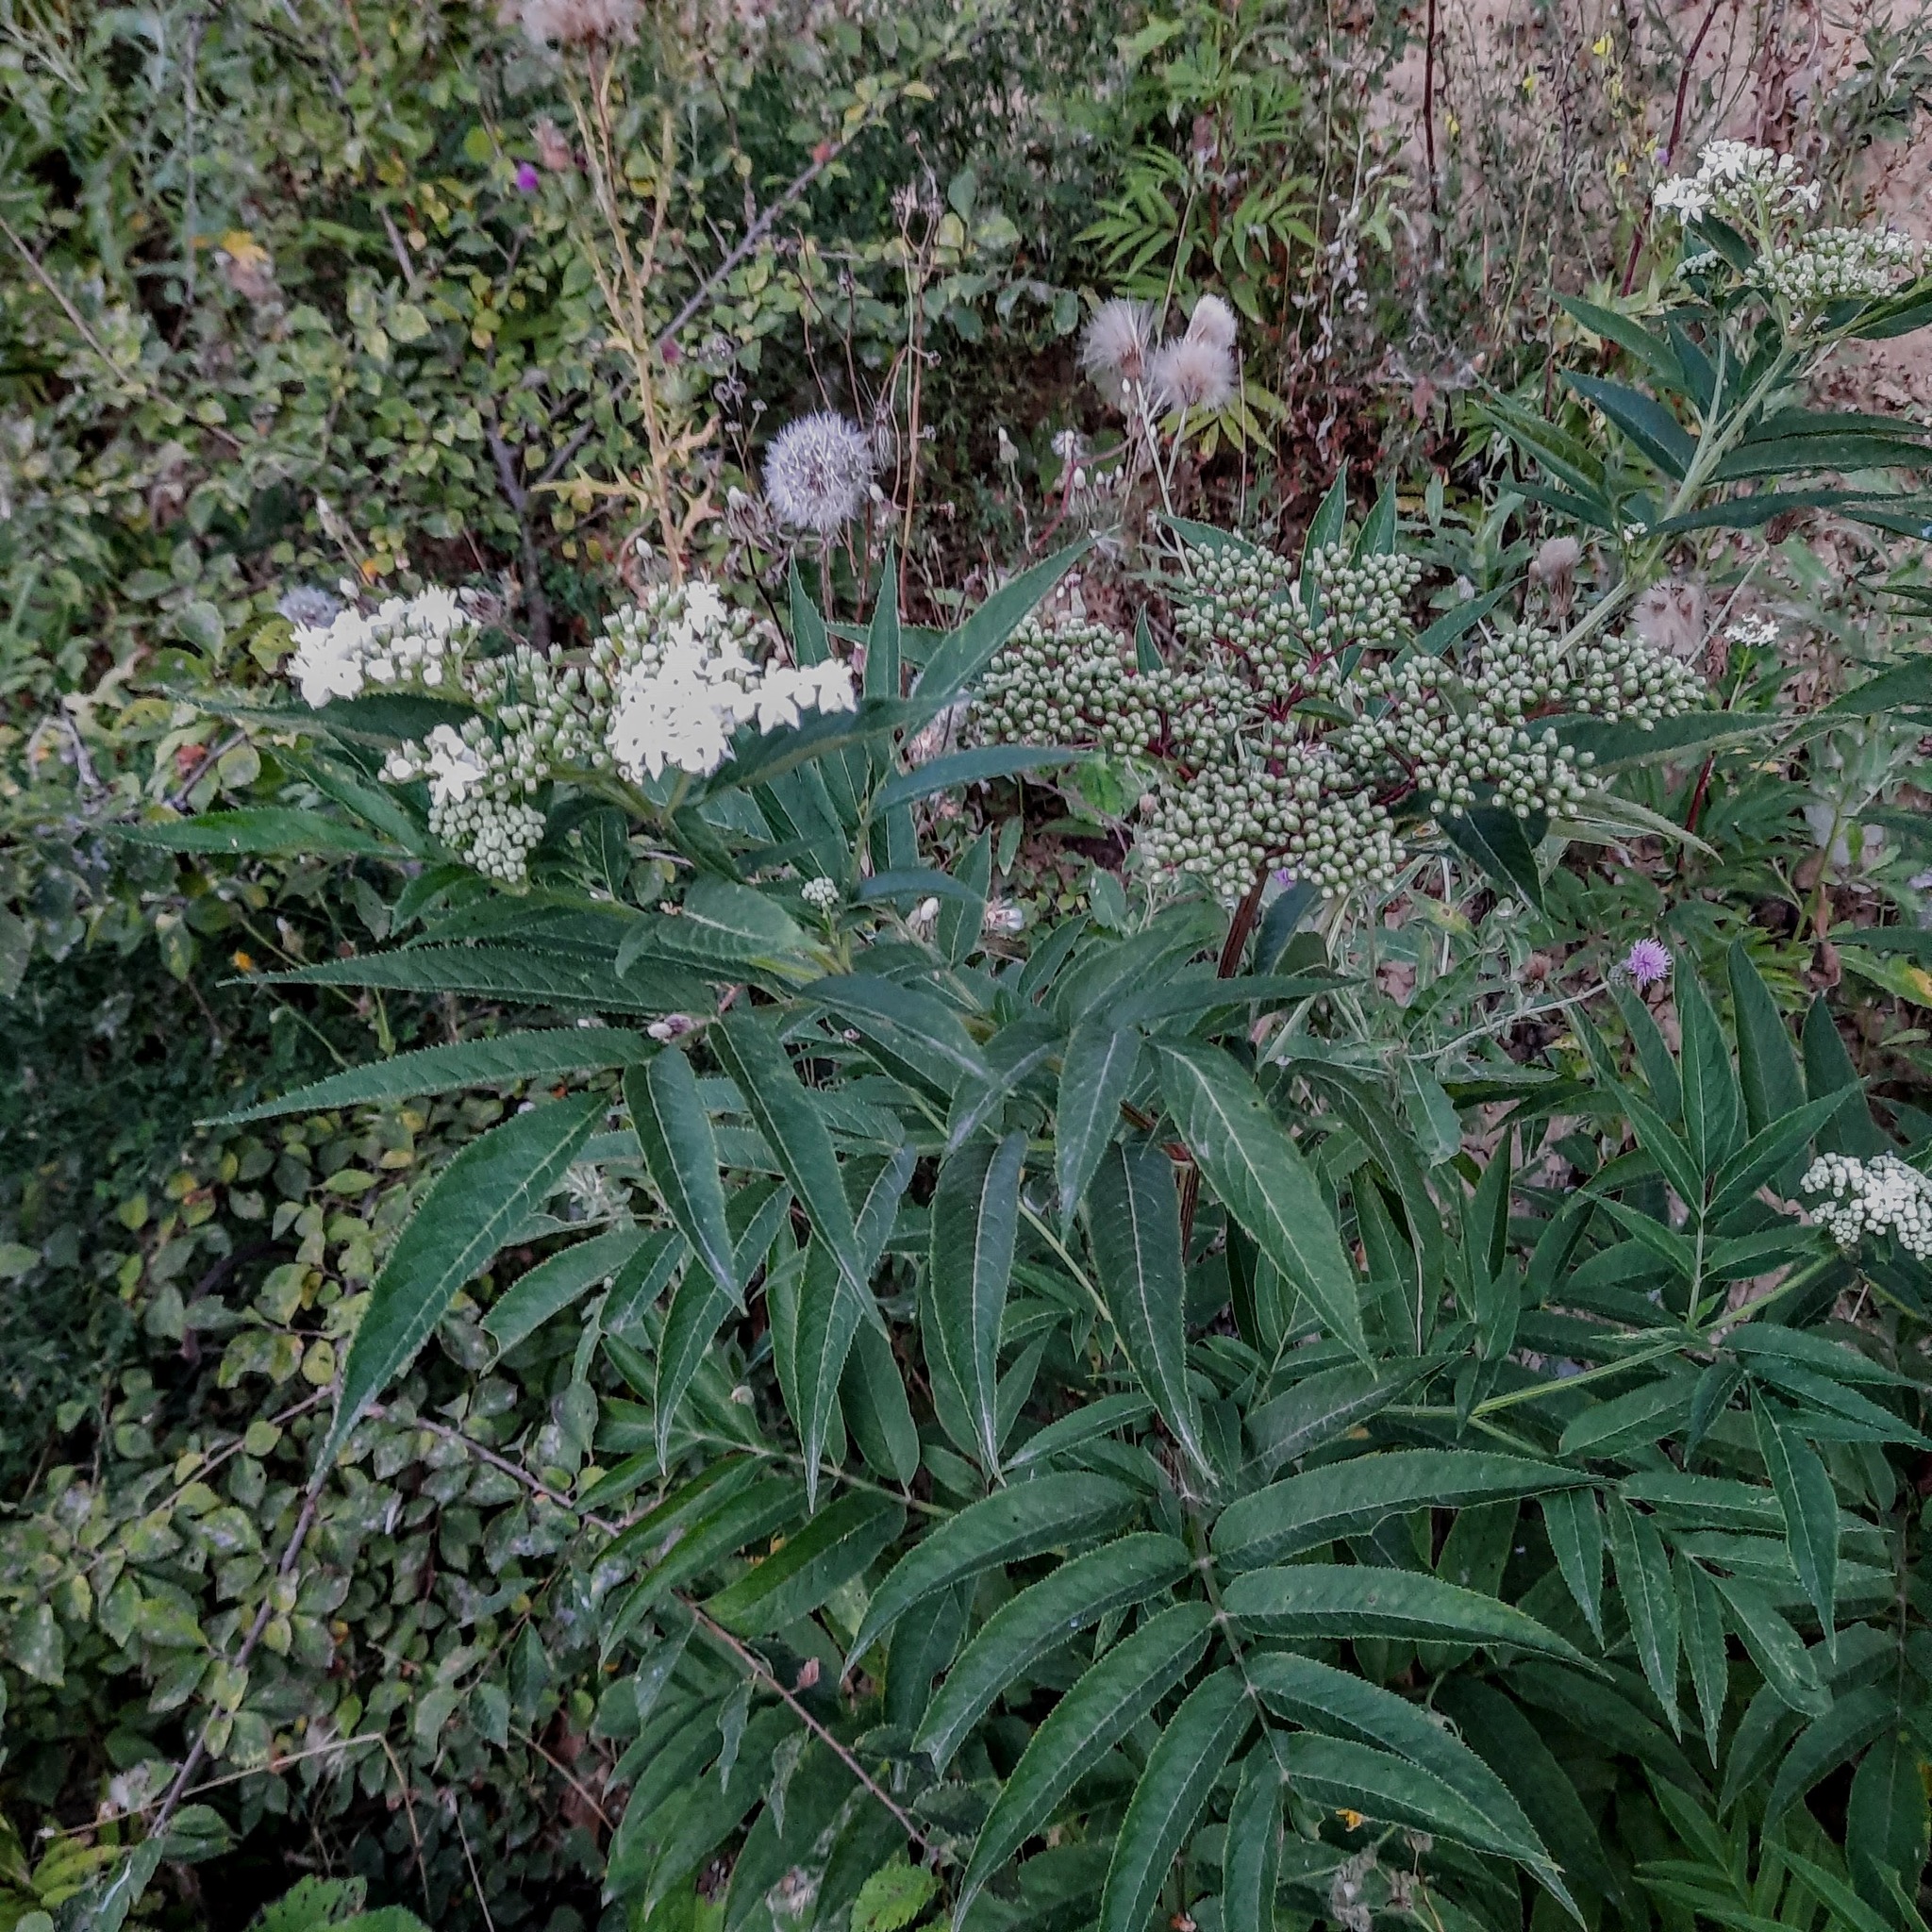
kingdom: Plantae
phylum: Tracheophyta
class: Magnoliopsida
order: Dipsacales
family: Viburnaceae
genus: Sambucus
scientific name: Sambucus ebulus
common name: Dwarf elder
